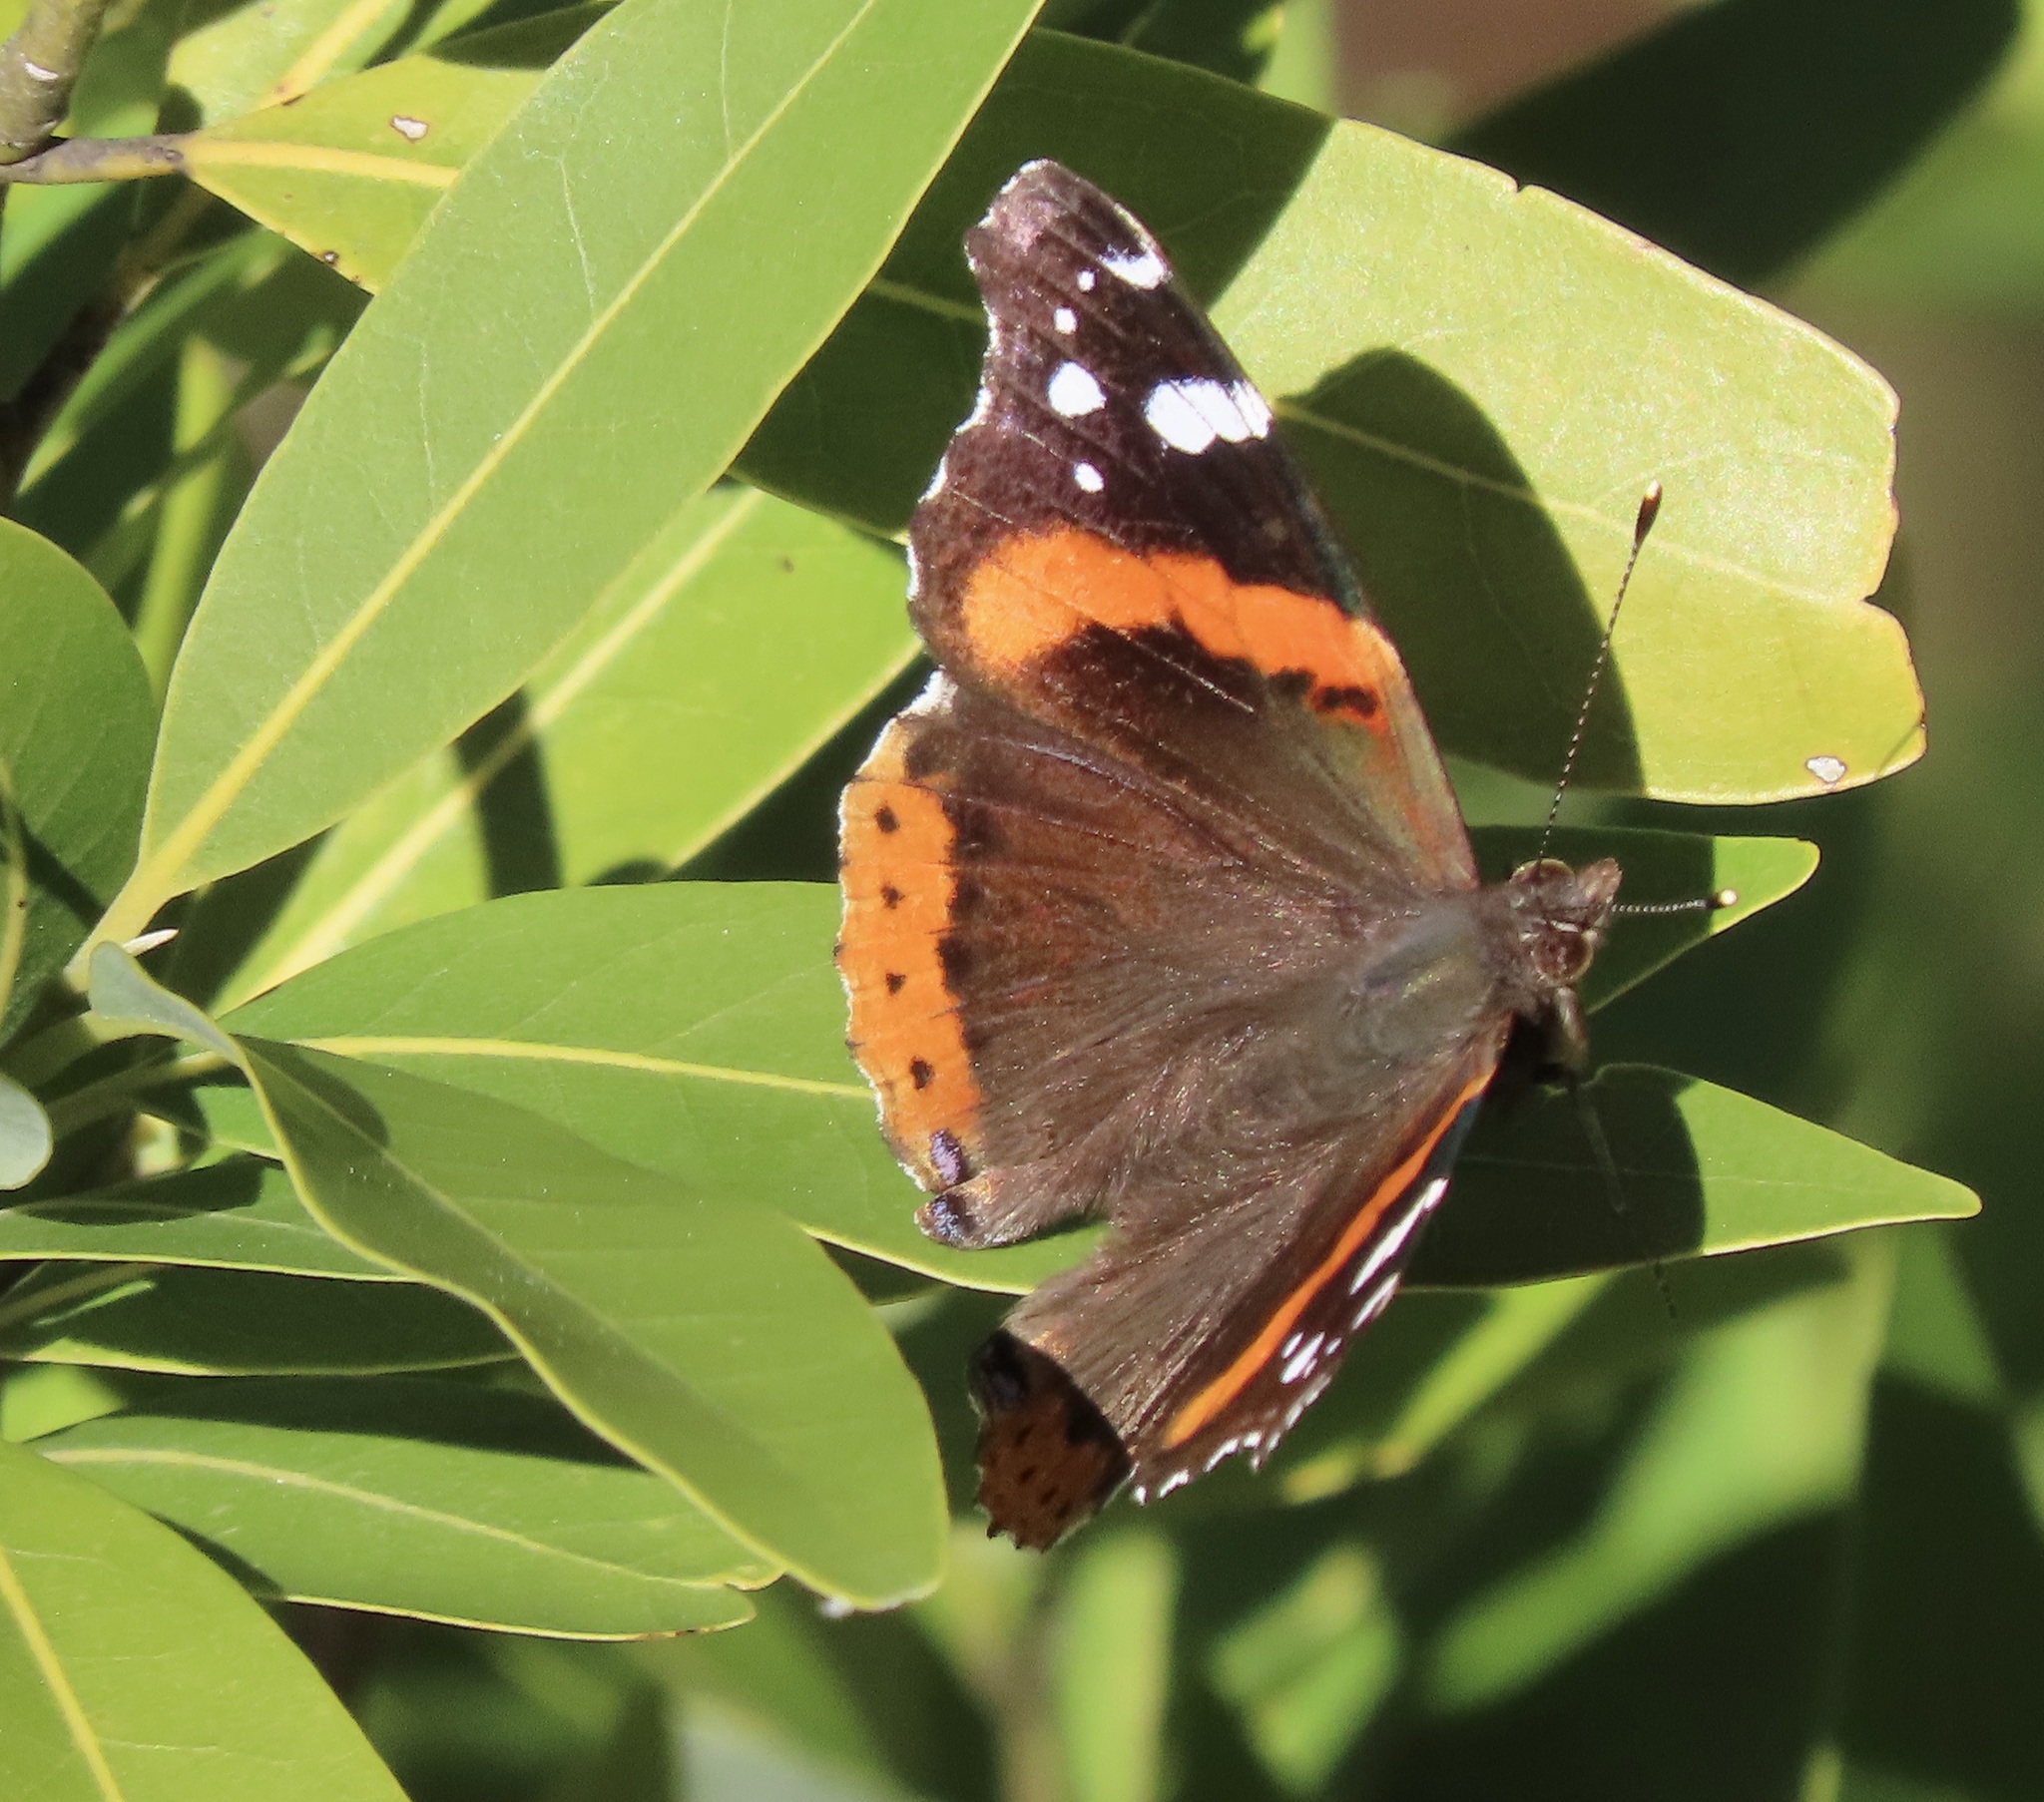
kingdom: Animalia
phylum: Arthropoda
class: Insecta
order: Lepidoptera
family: Nymphalidae
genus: Vanessa
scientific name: Vanessa atalanta
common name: Red admiral
